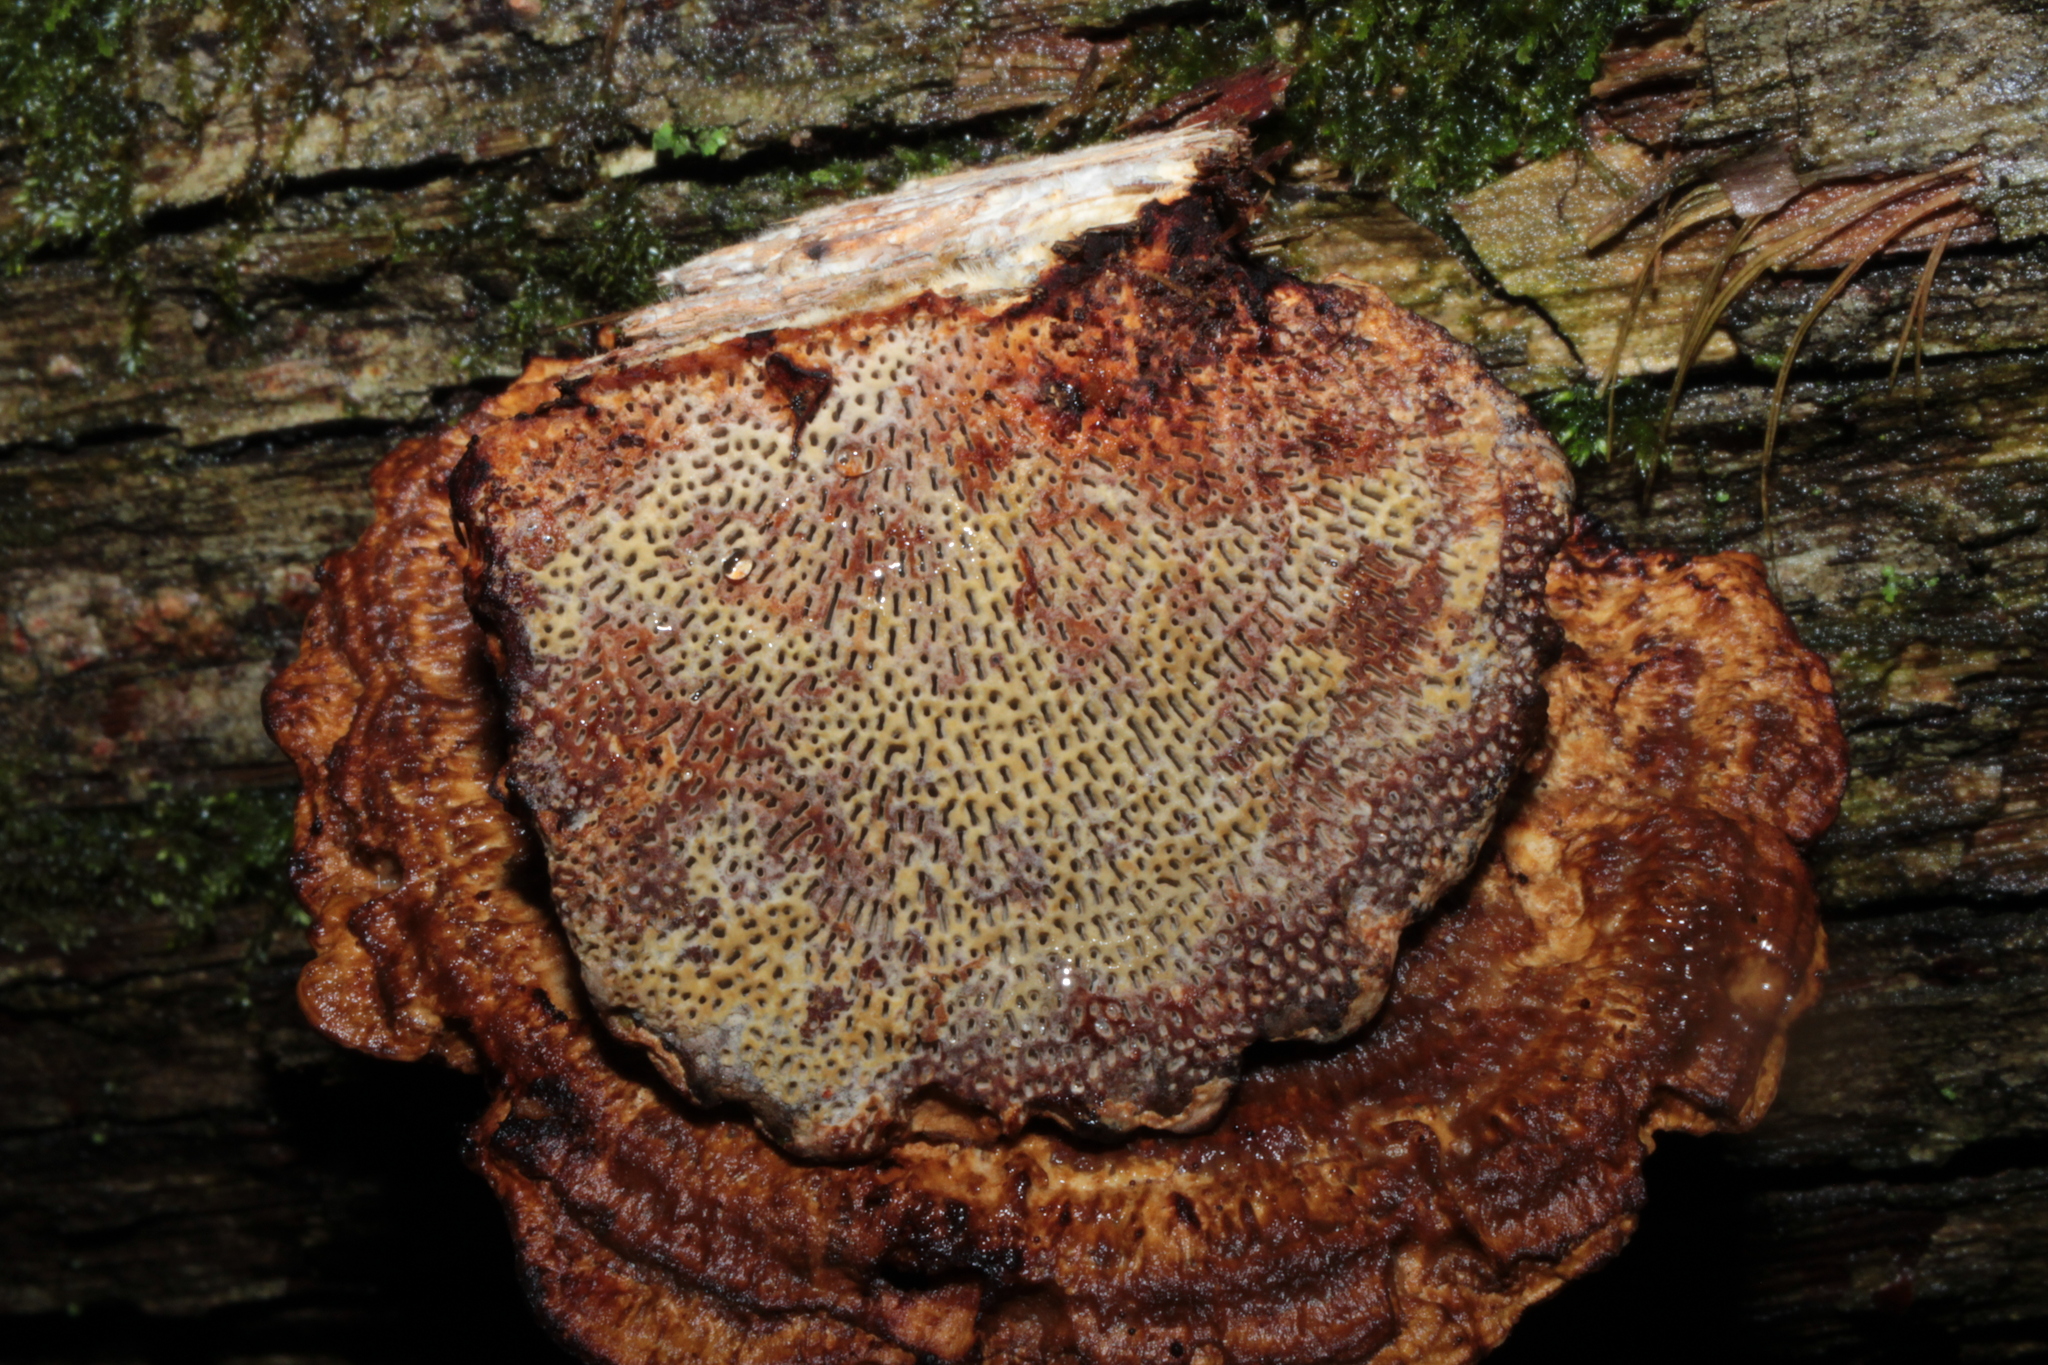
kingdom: Fungi
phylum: Basidiomycota
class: Agaricomycetes
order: Polyporales
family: Polyporaceae
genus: Daedaleopsis
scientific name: Daedaleopsis confragosa
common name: Blushing bracket
